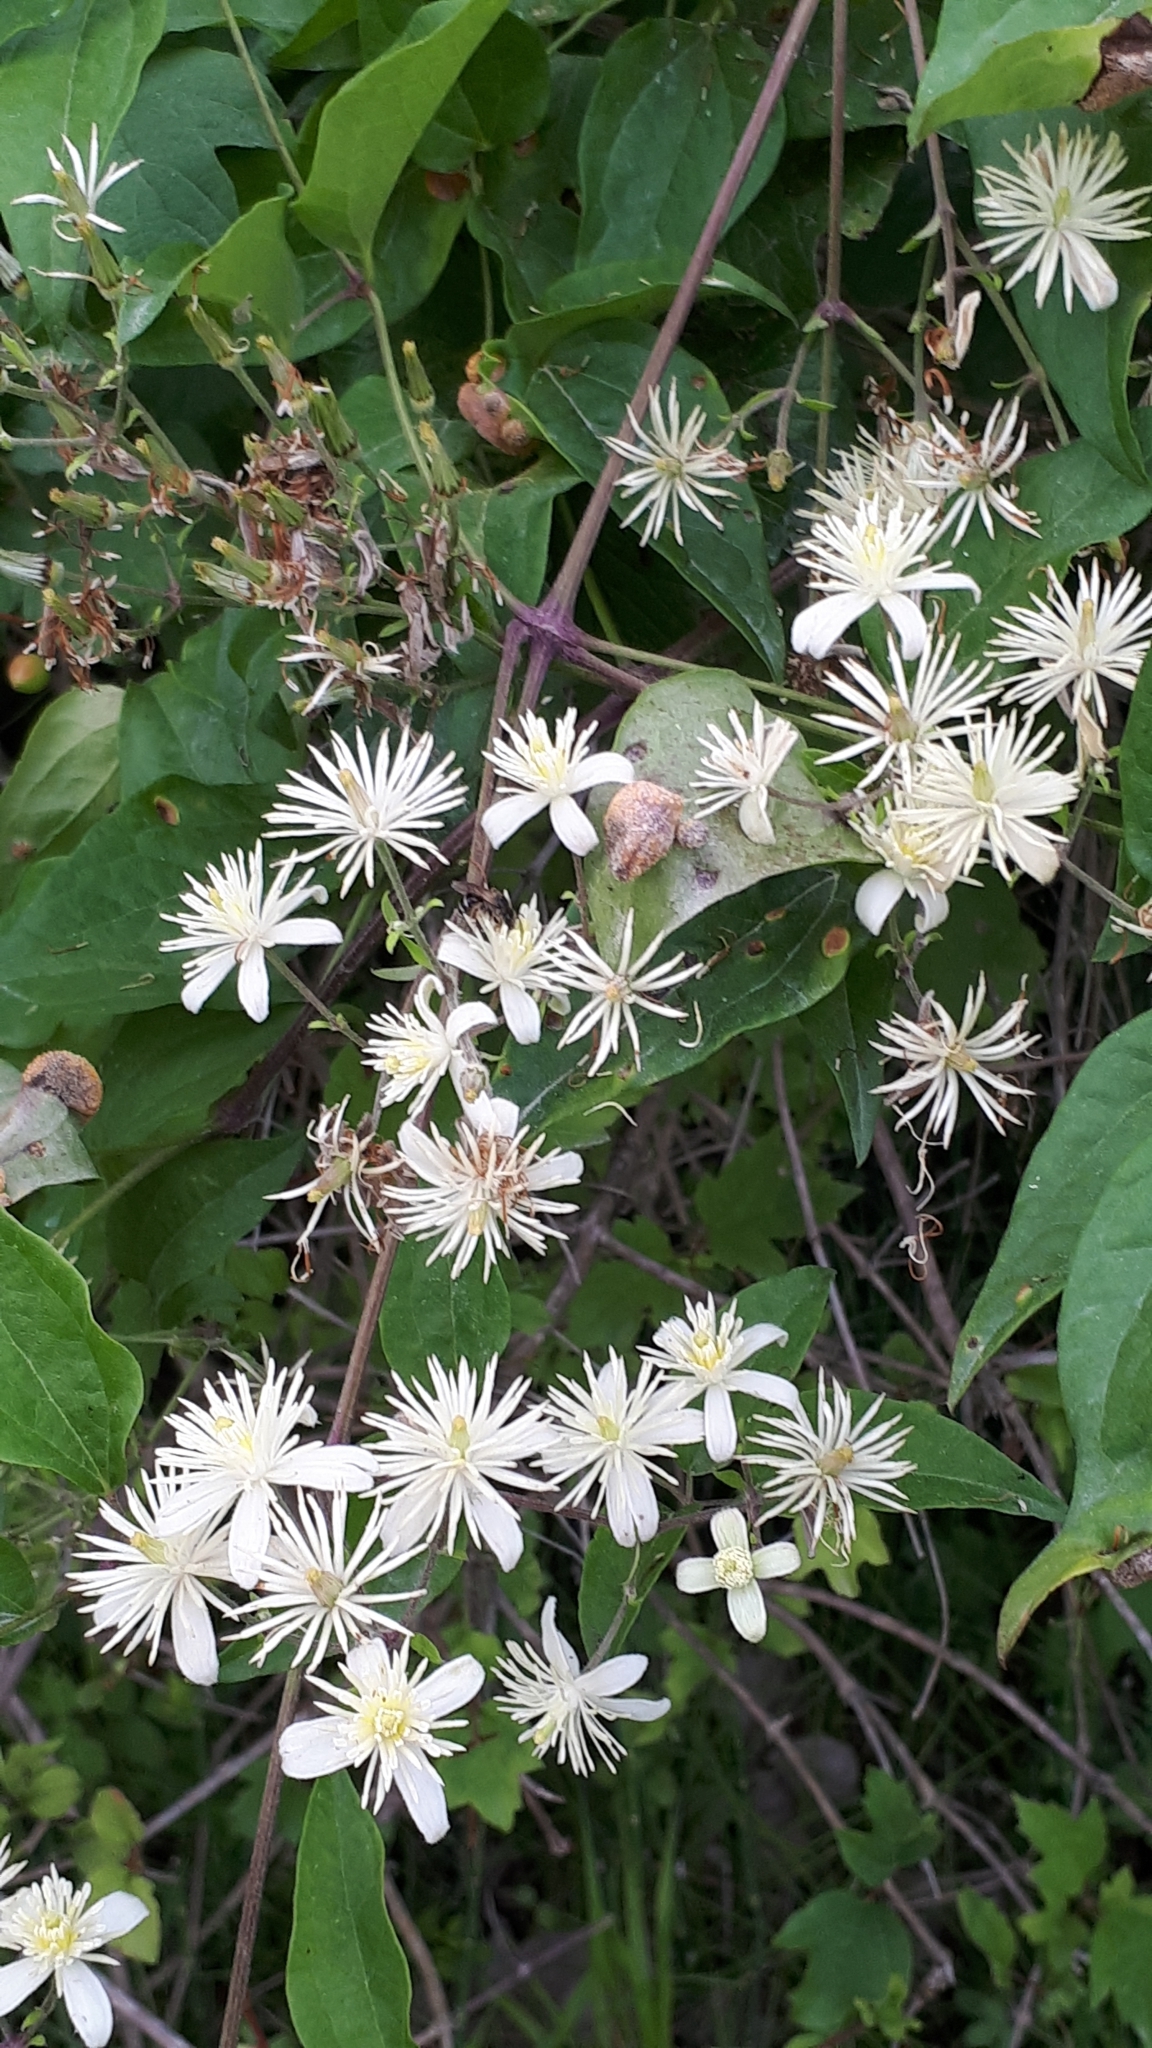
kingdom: Plantae
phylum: Tracheophyta
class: Magnoliopsida
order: Ranunculales
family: Ranunculaceae
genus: Clematis
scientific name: Clematis vitalba
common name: Evergreen clematis
